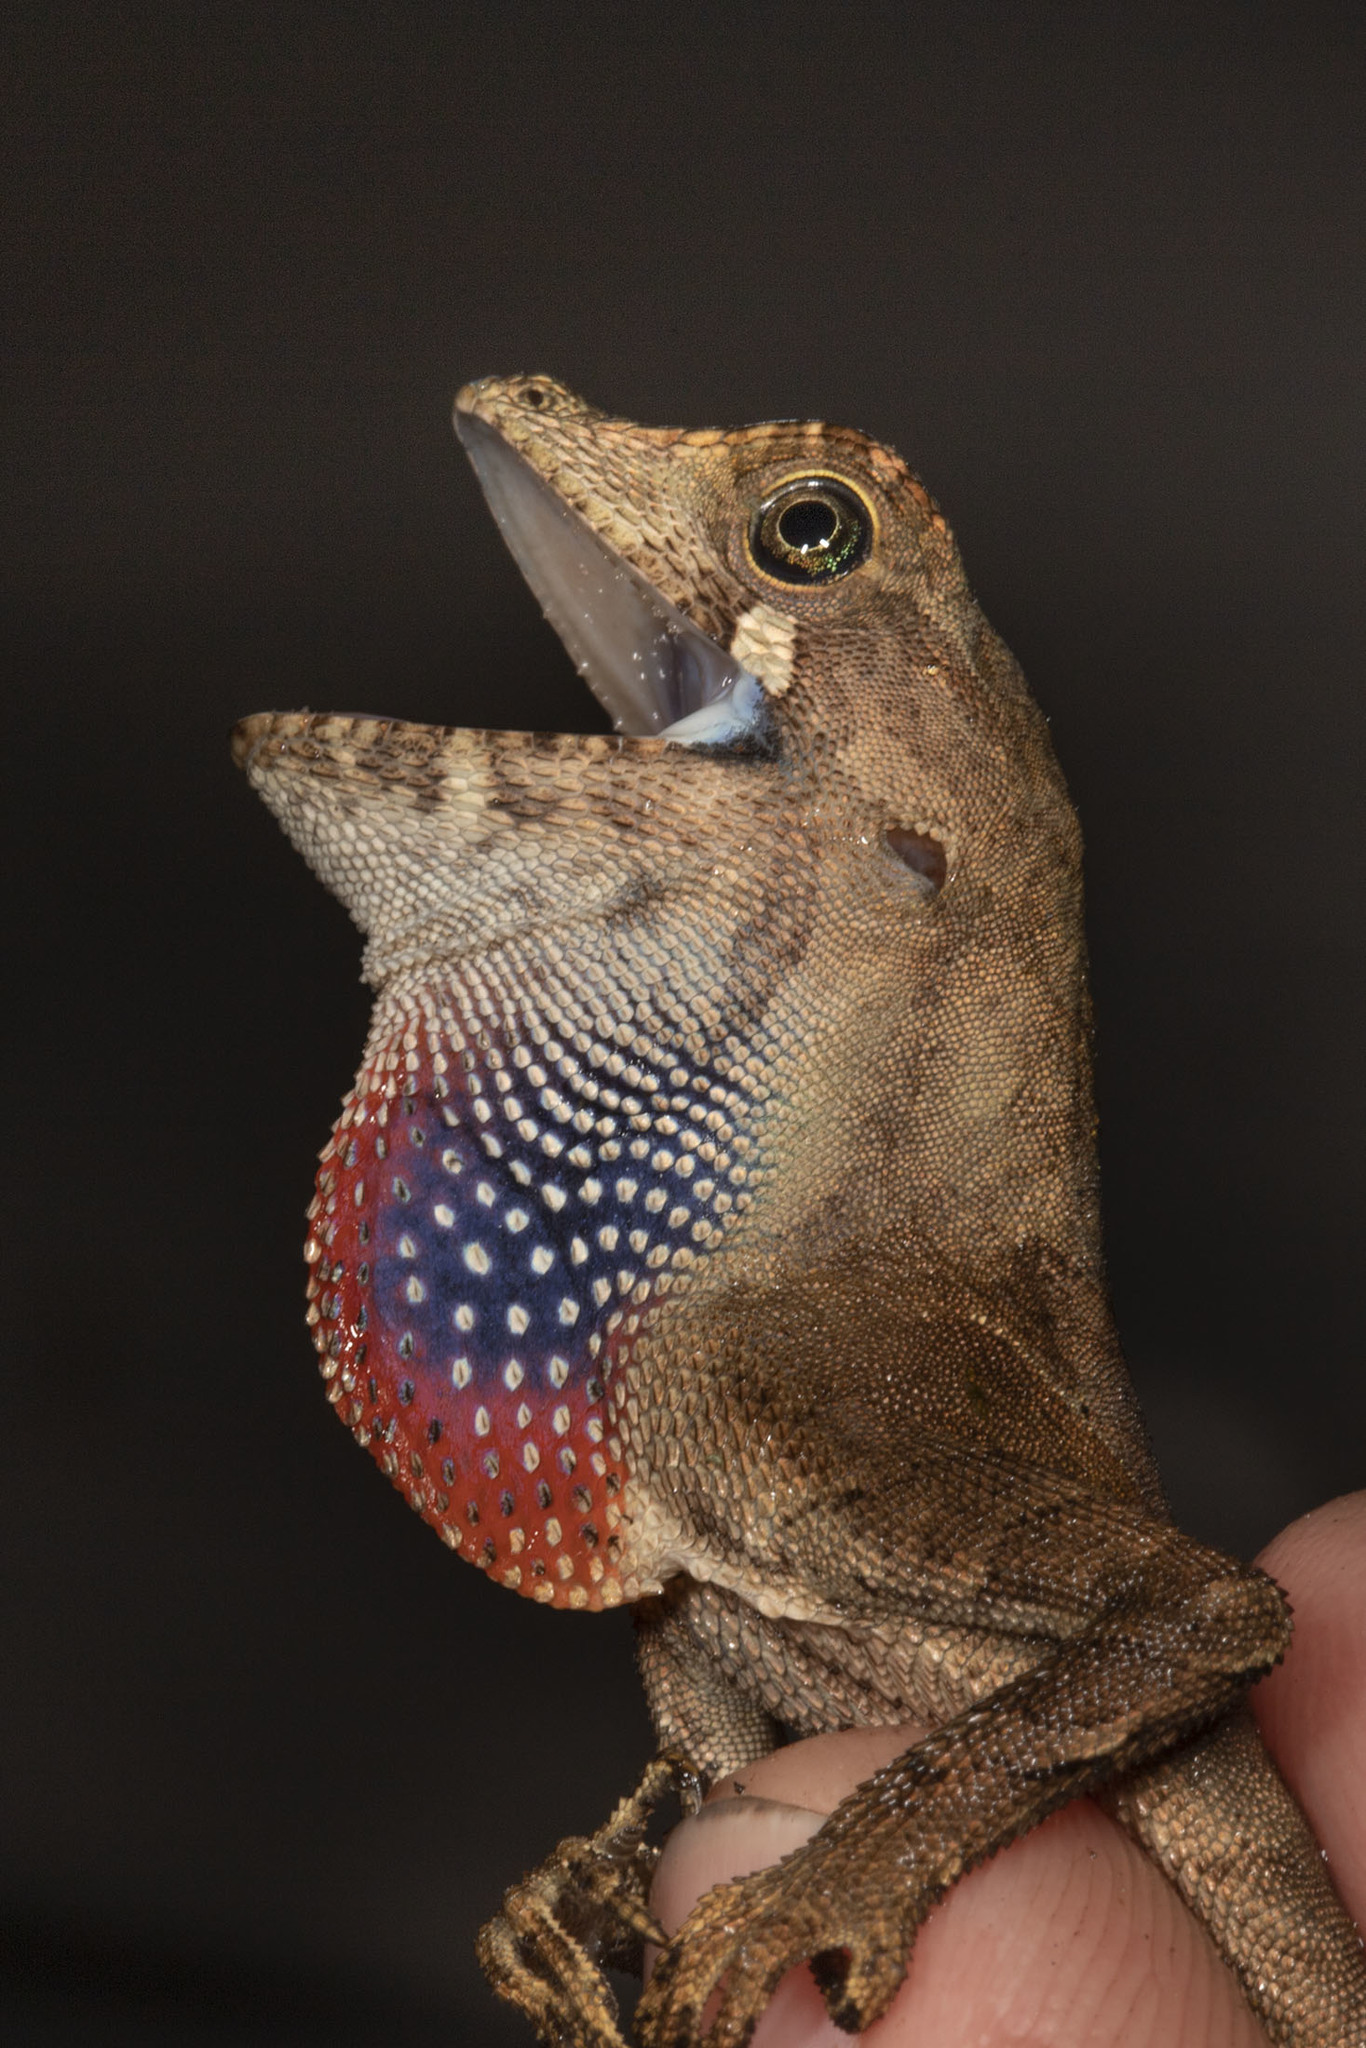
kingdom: Animalia
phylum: Chordata
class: Squamata
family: Dactyloidae
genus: Anolis
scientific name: Anolis scypheus
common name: Yellow-tongued anole
